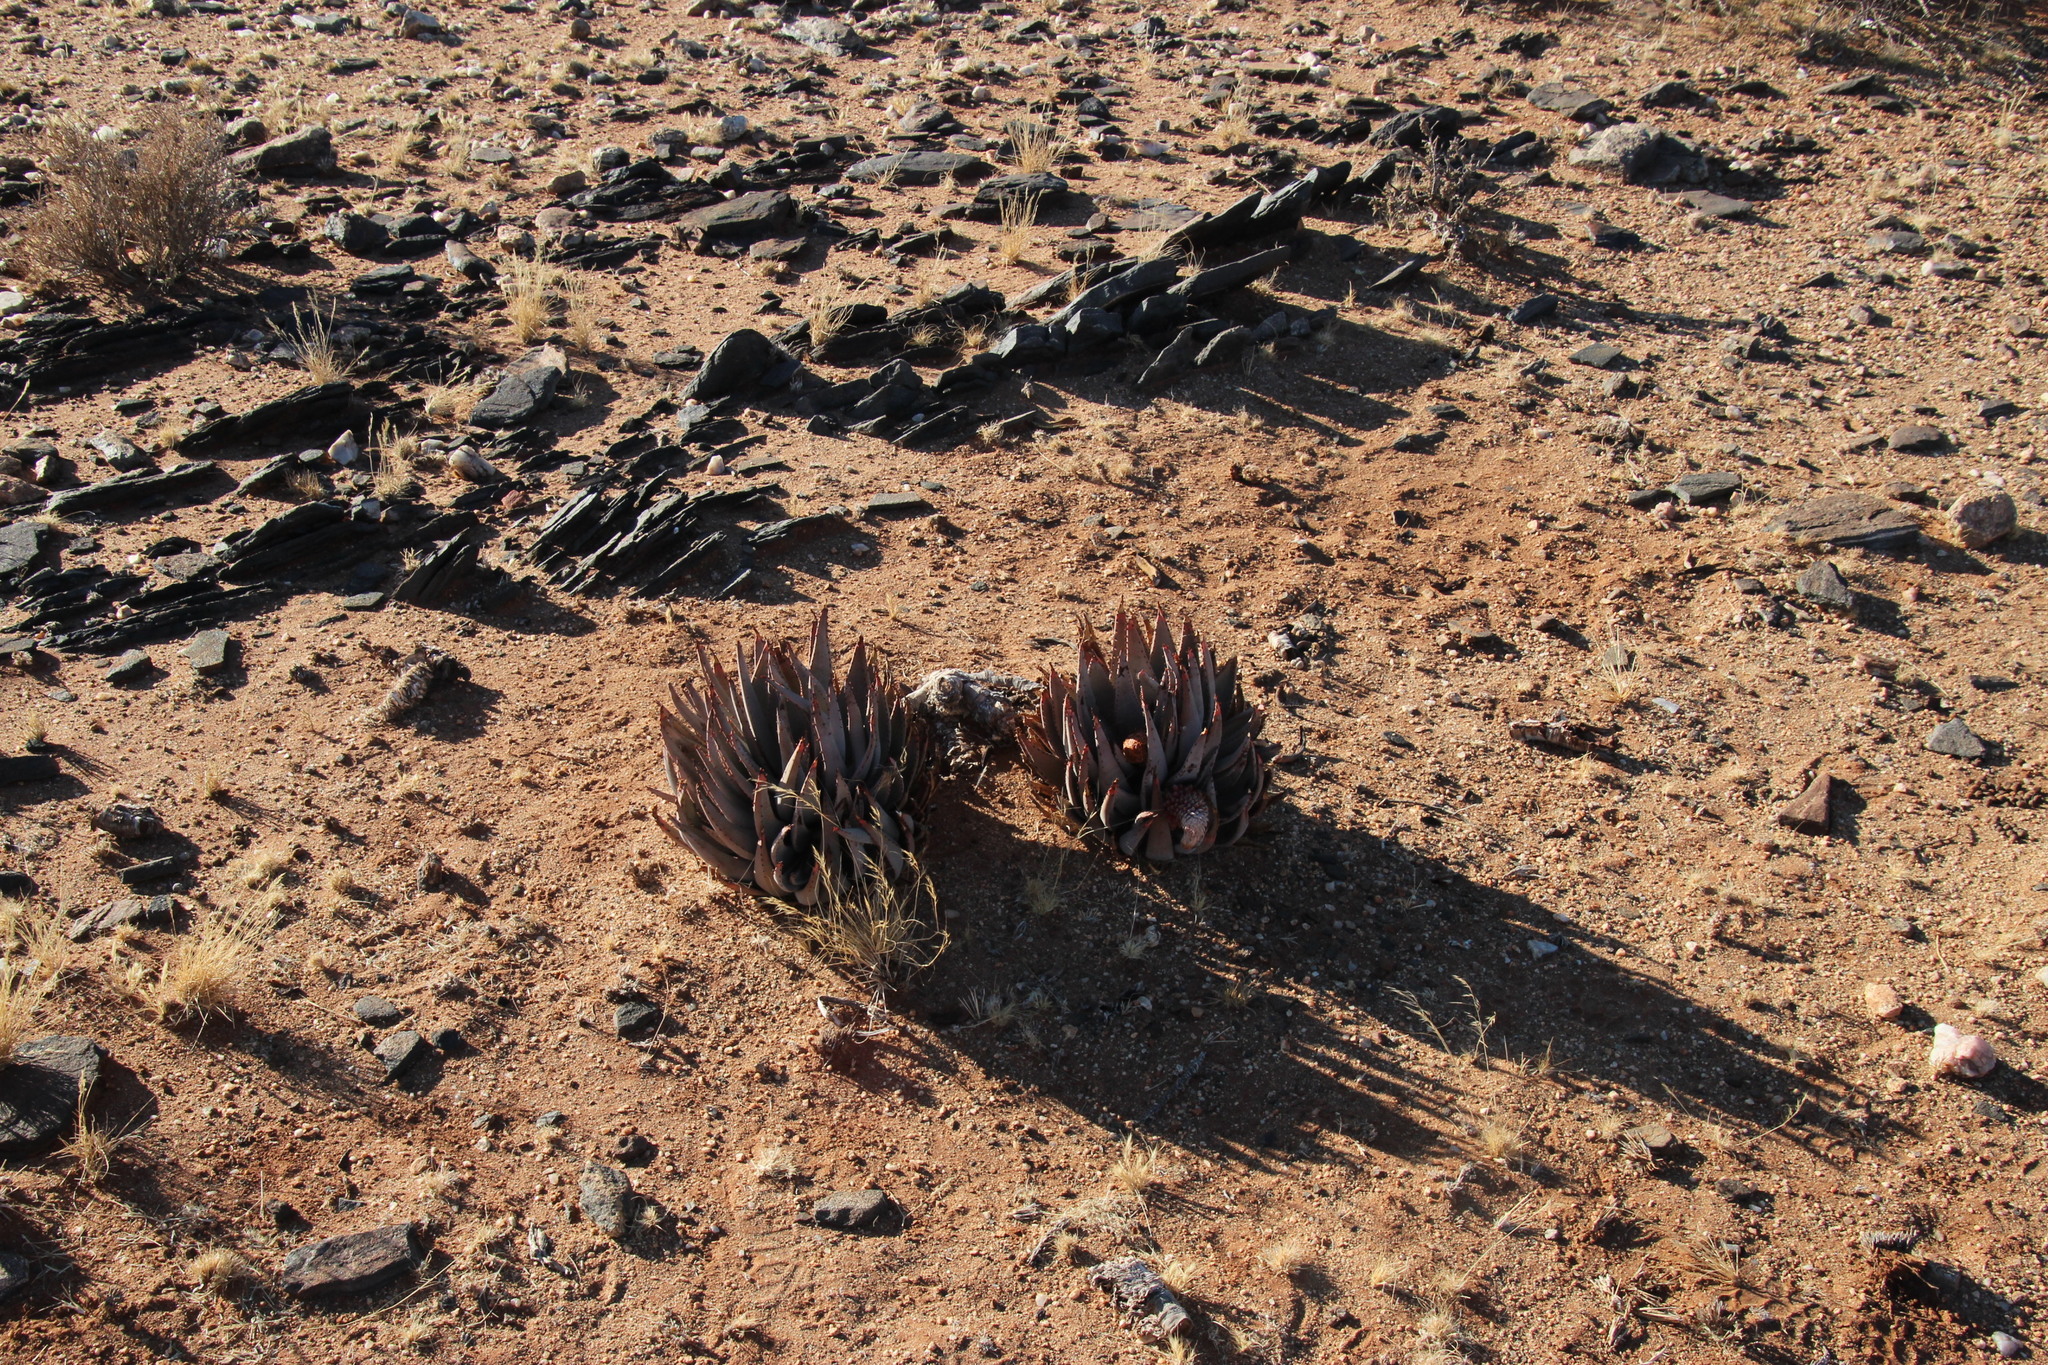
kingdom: Plantae
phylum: Tracheophyta
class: Liliopsida
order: Asparagales
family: Asphodelaceae
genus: Aloe
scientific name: Aloe claviflora
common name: Cannon aloe
